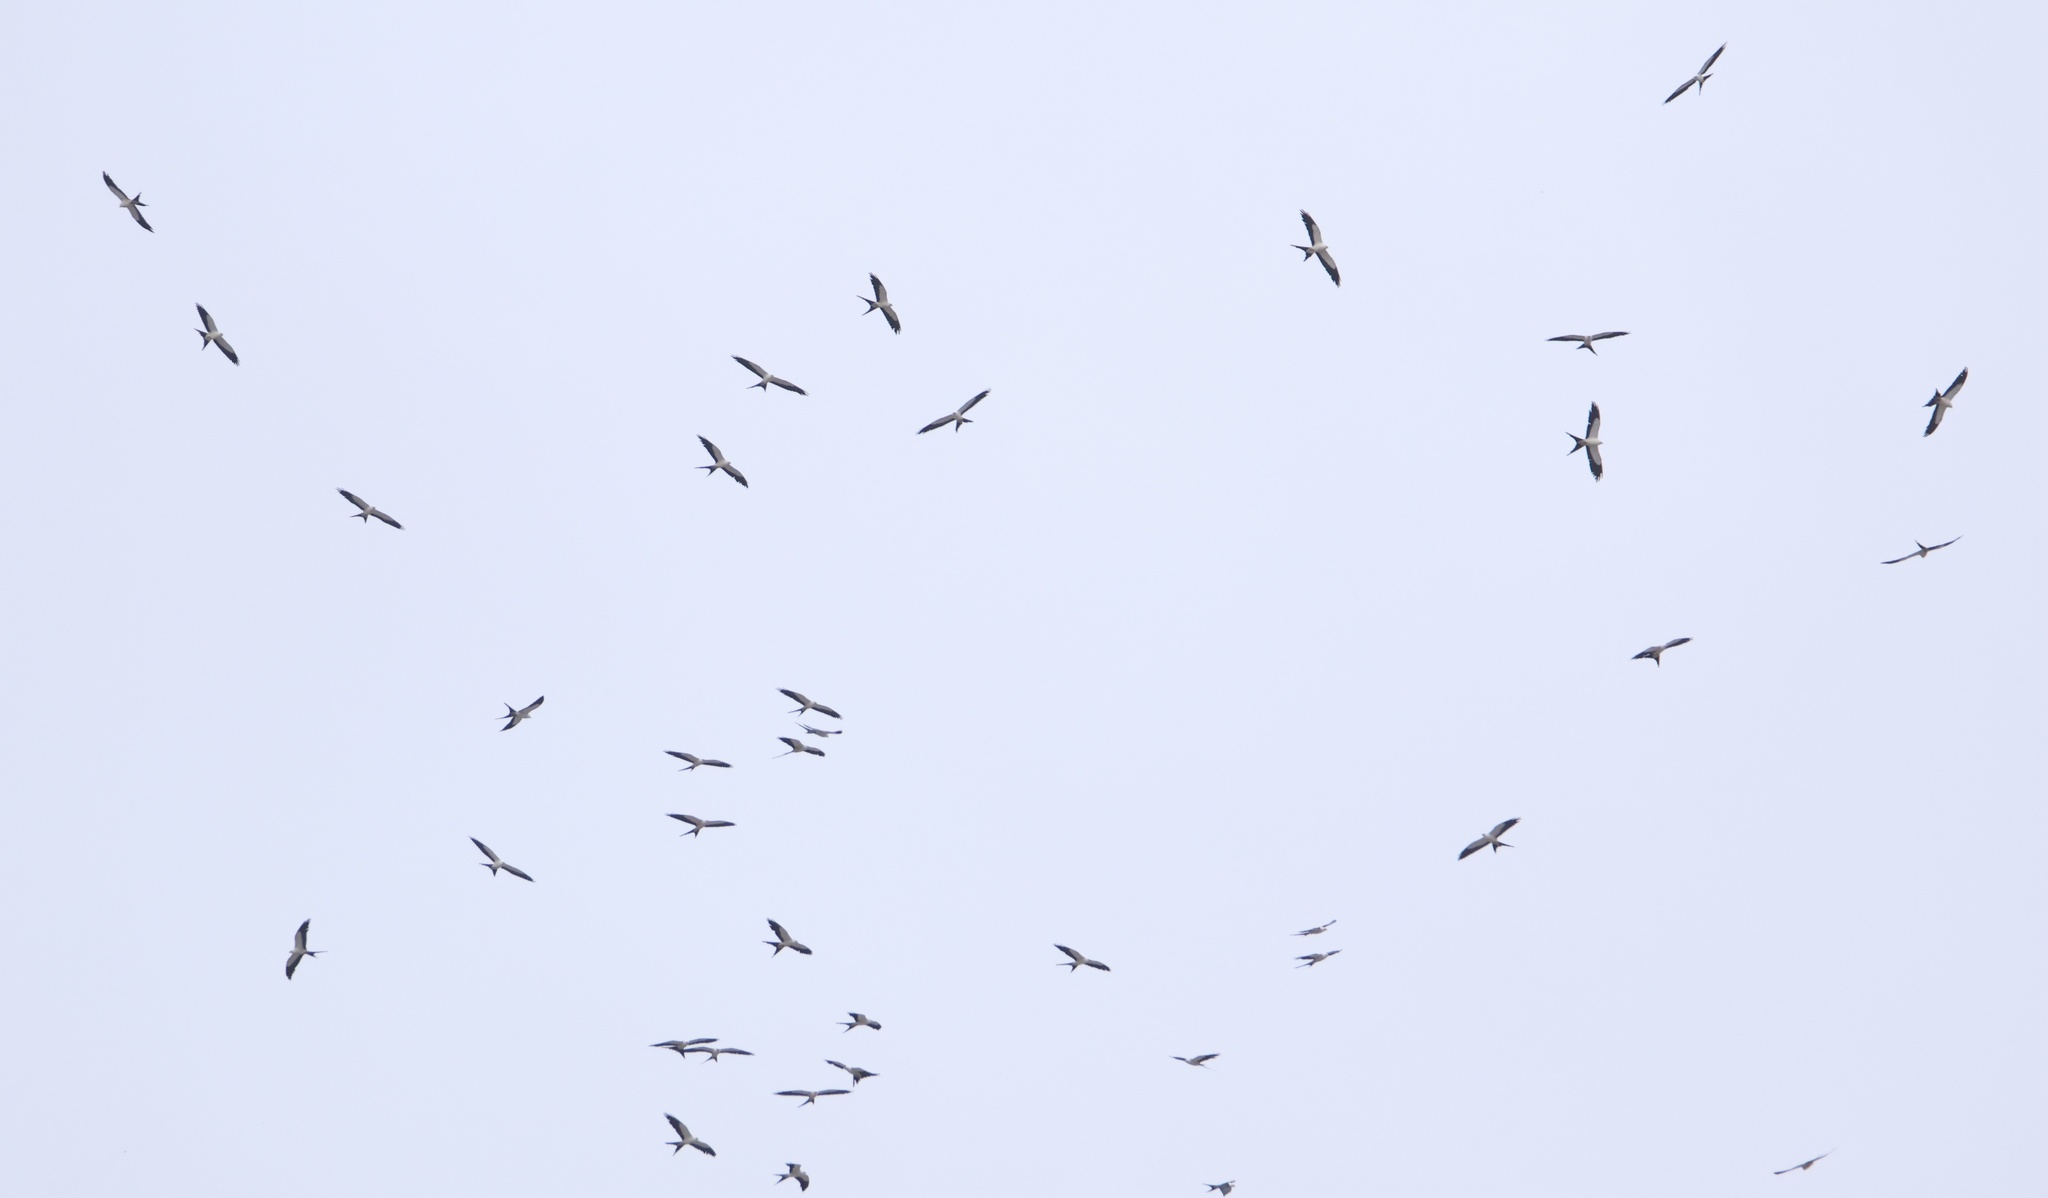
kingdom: Animalia
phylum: Chordata
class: Aves
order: Accipitriformes
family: Accipitridae
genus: Elanoides
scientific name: Elanoides forficatus
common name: Swallow-tailed kite
